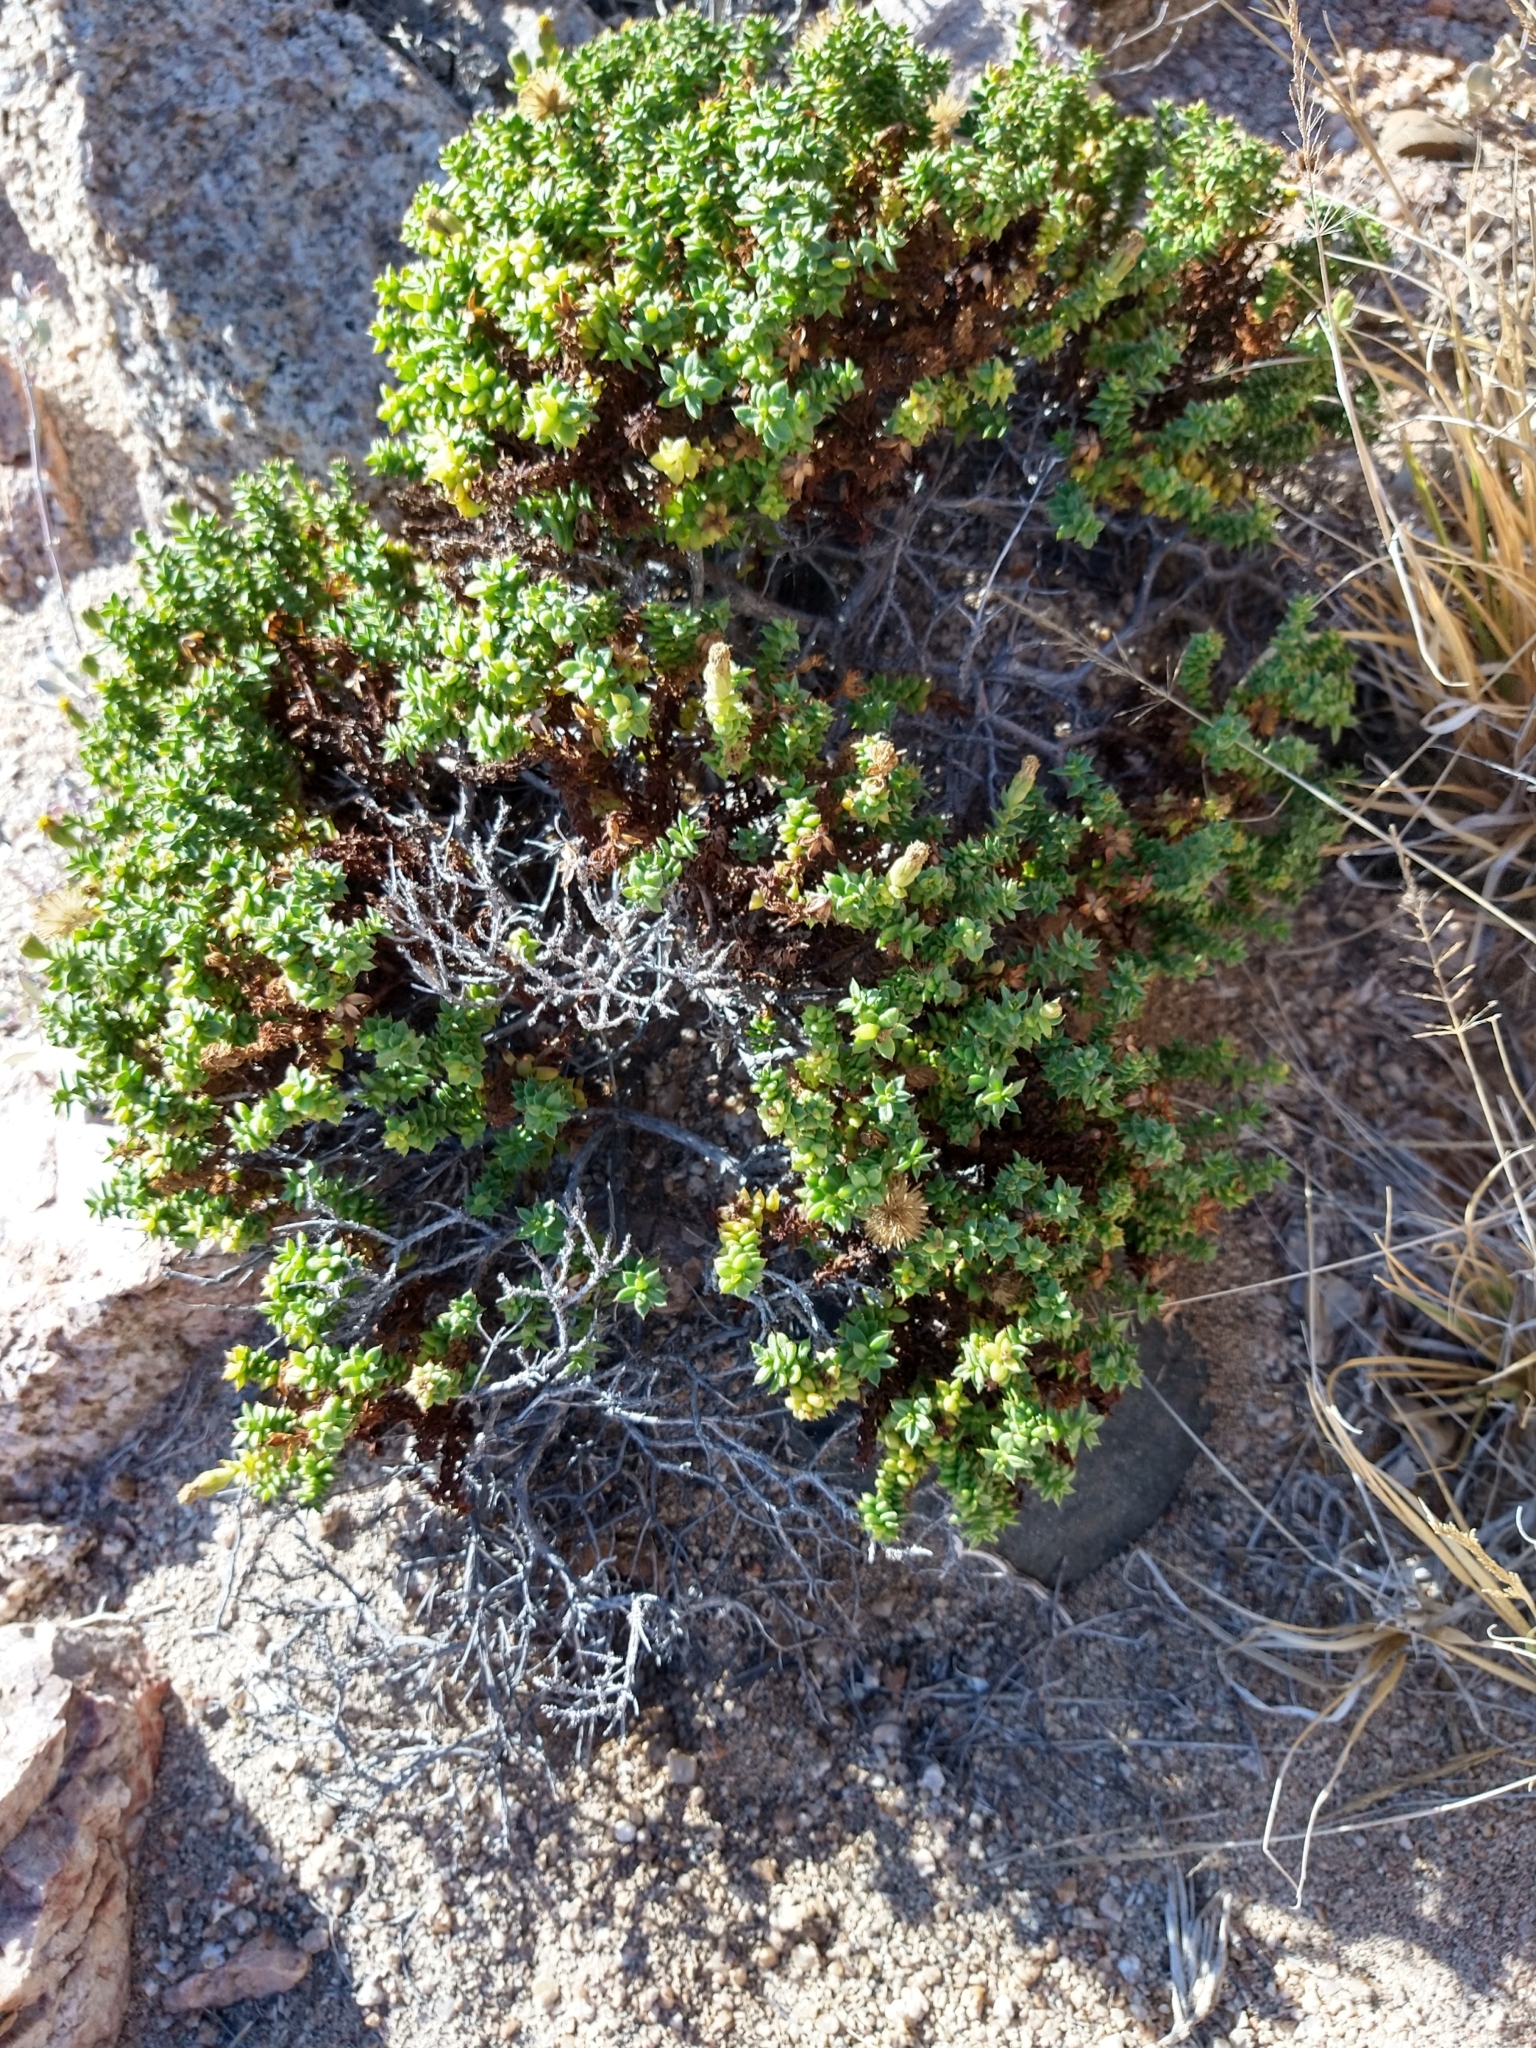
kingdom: Plantae
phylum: Tracheophyta
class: Magnoliopsida
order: Asterales
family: Asteraceae
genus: Bajacalia
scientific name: Bajacalia crassifolia
